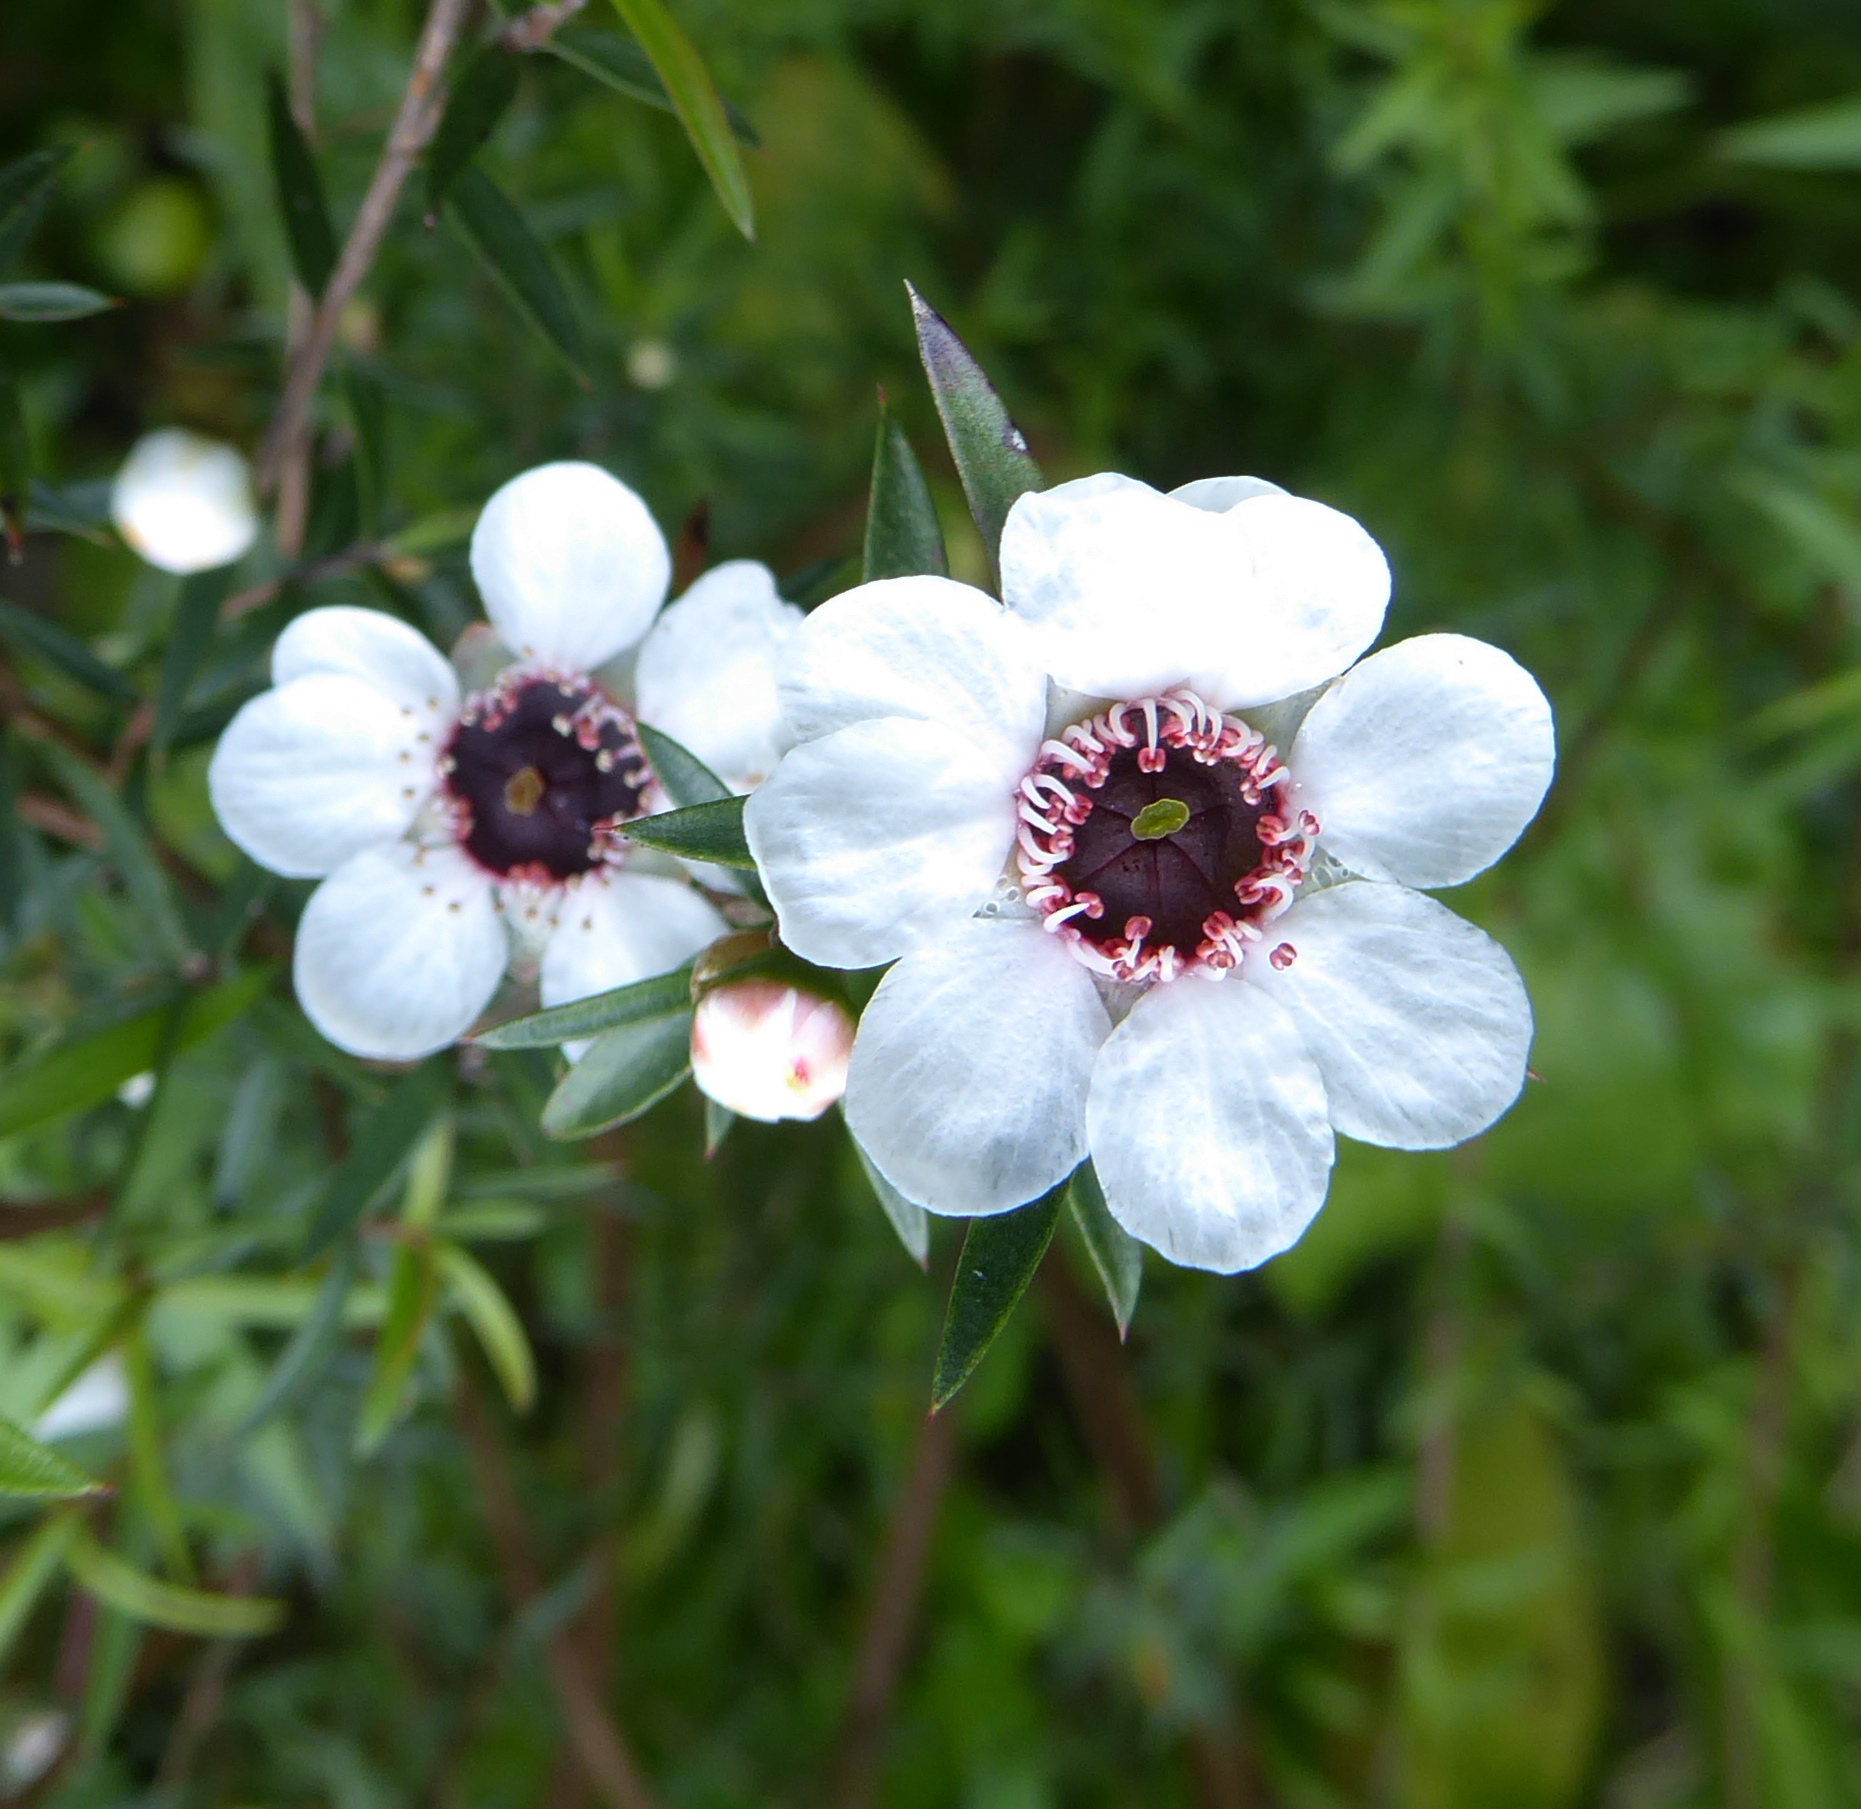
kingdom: Plantae
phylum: Tracheophyta
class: Magnoliopsida
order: Myrtales
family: Myrtaceae
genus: Leptospermum
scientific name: Leptospermum scoparium
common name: Broom tea-tree
